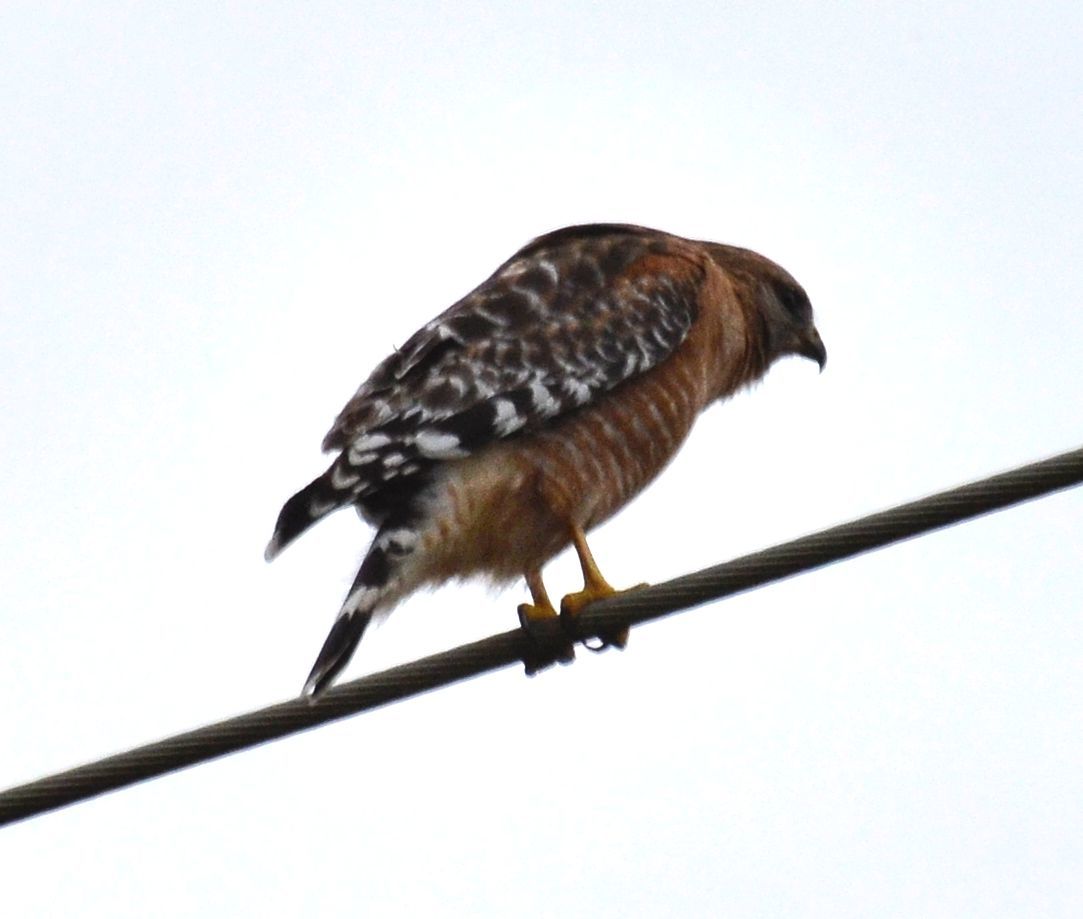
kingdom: Animalia
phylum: Chordata
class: Aves
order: Accipitriformes
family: Accipitridae
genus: Buteo
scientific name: Buteo lineatus
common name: Red-shouldered hawk
